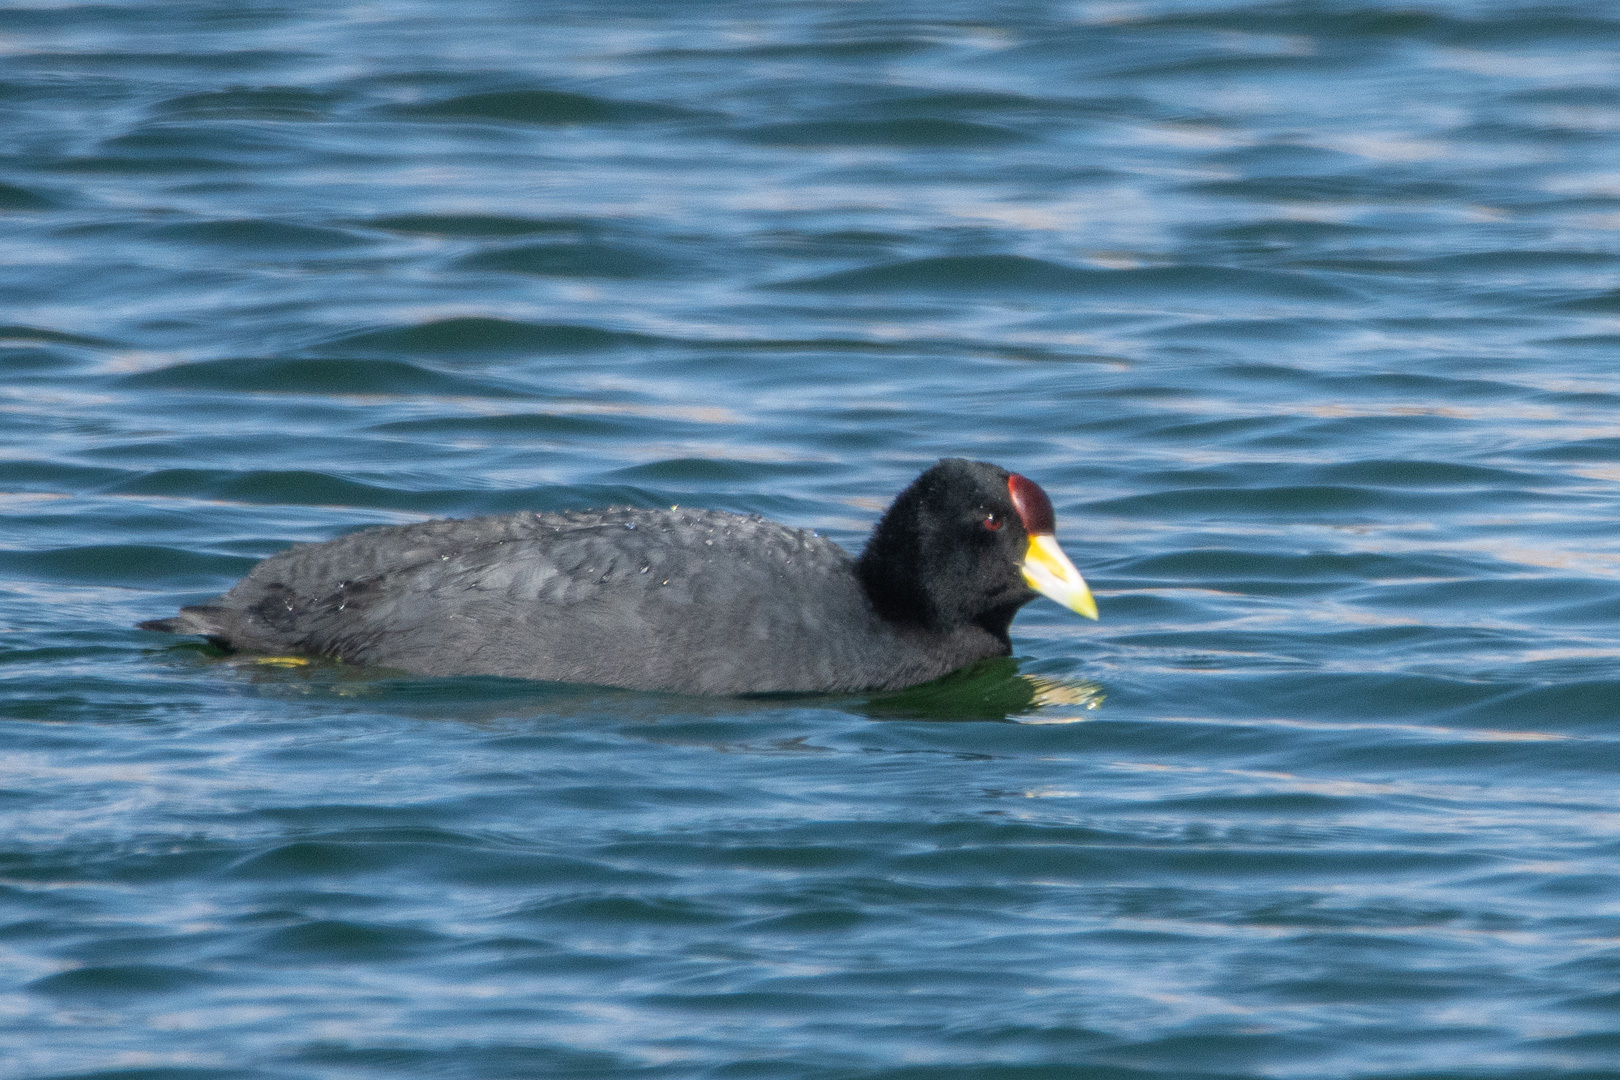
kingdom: Animalia
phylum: Chordata
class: Aves
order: Gruiformes
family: Rallidae
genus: Fulica
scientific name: Fulica ardesiaca
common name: Andean coot
